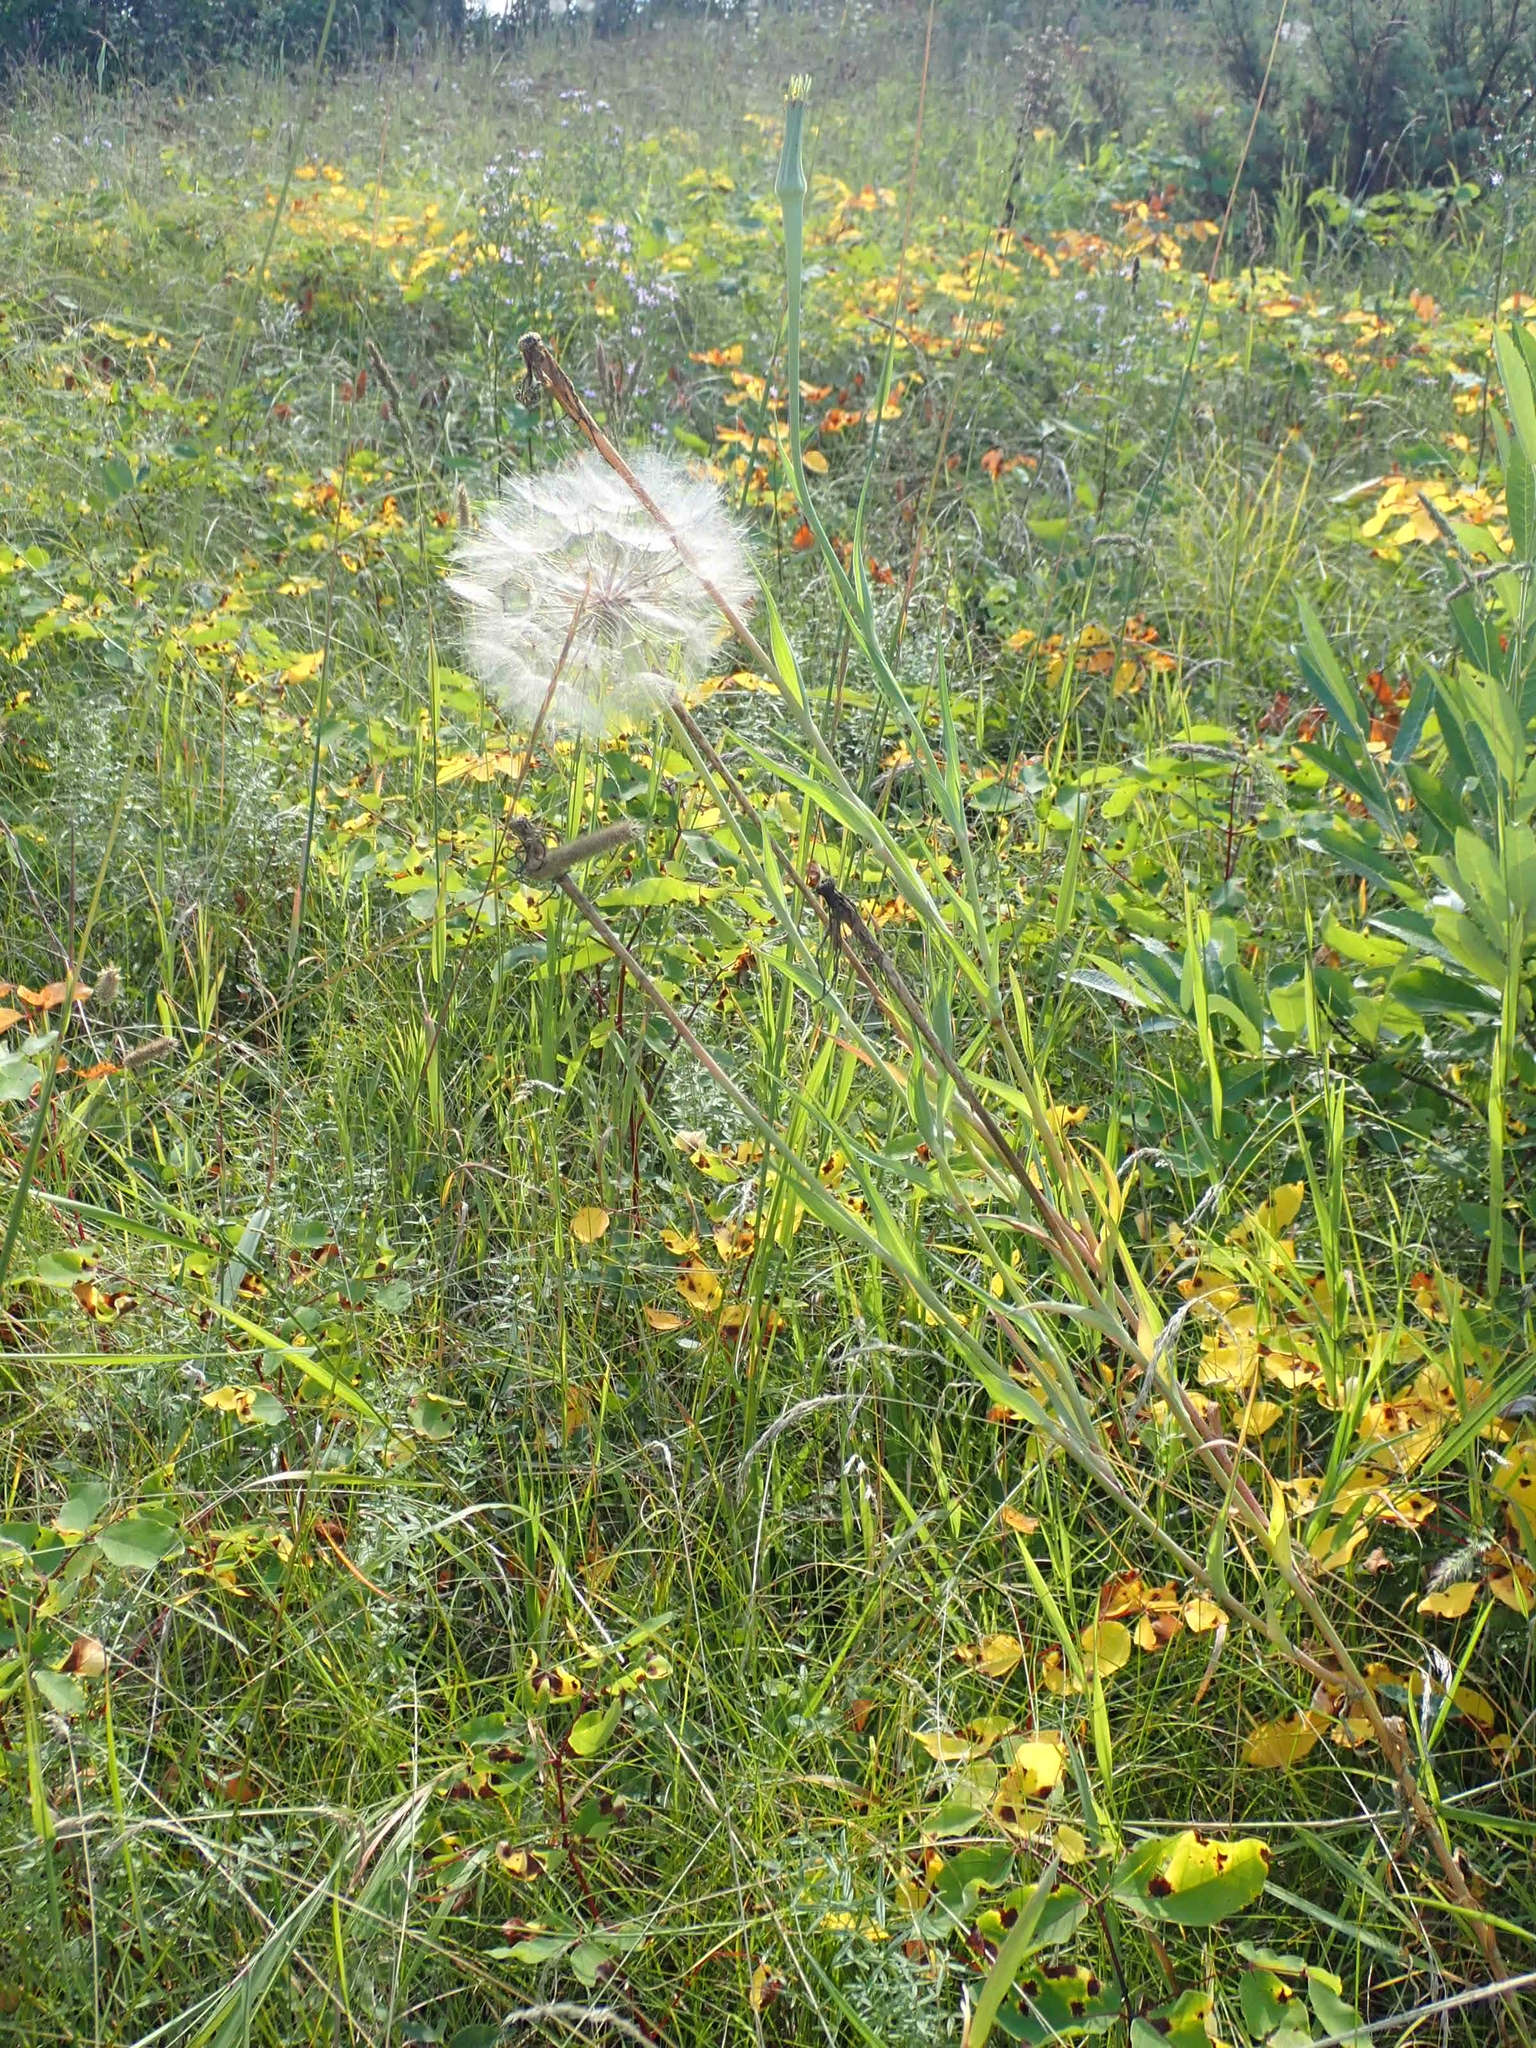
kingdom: Plantae
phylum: Tracheophyta
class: Magnoliopsida
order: Asterales
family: Asteraceae
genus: Tragopogon
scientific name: Tragopogon dubius
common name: Yellow salsify
